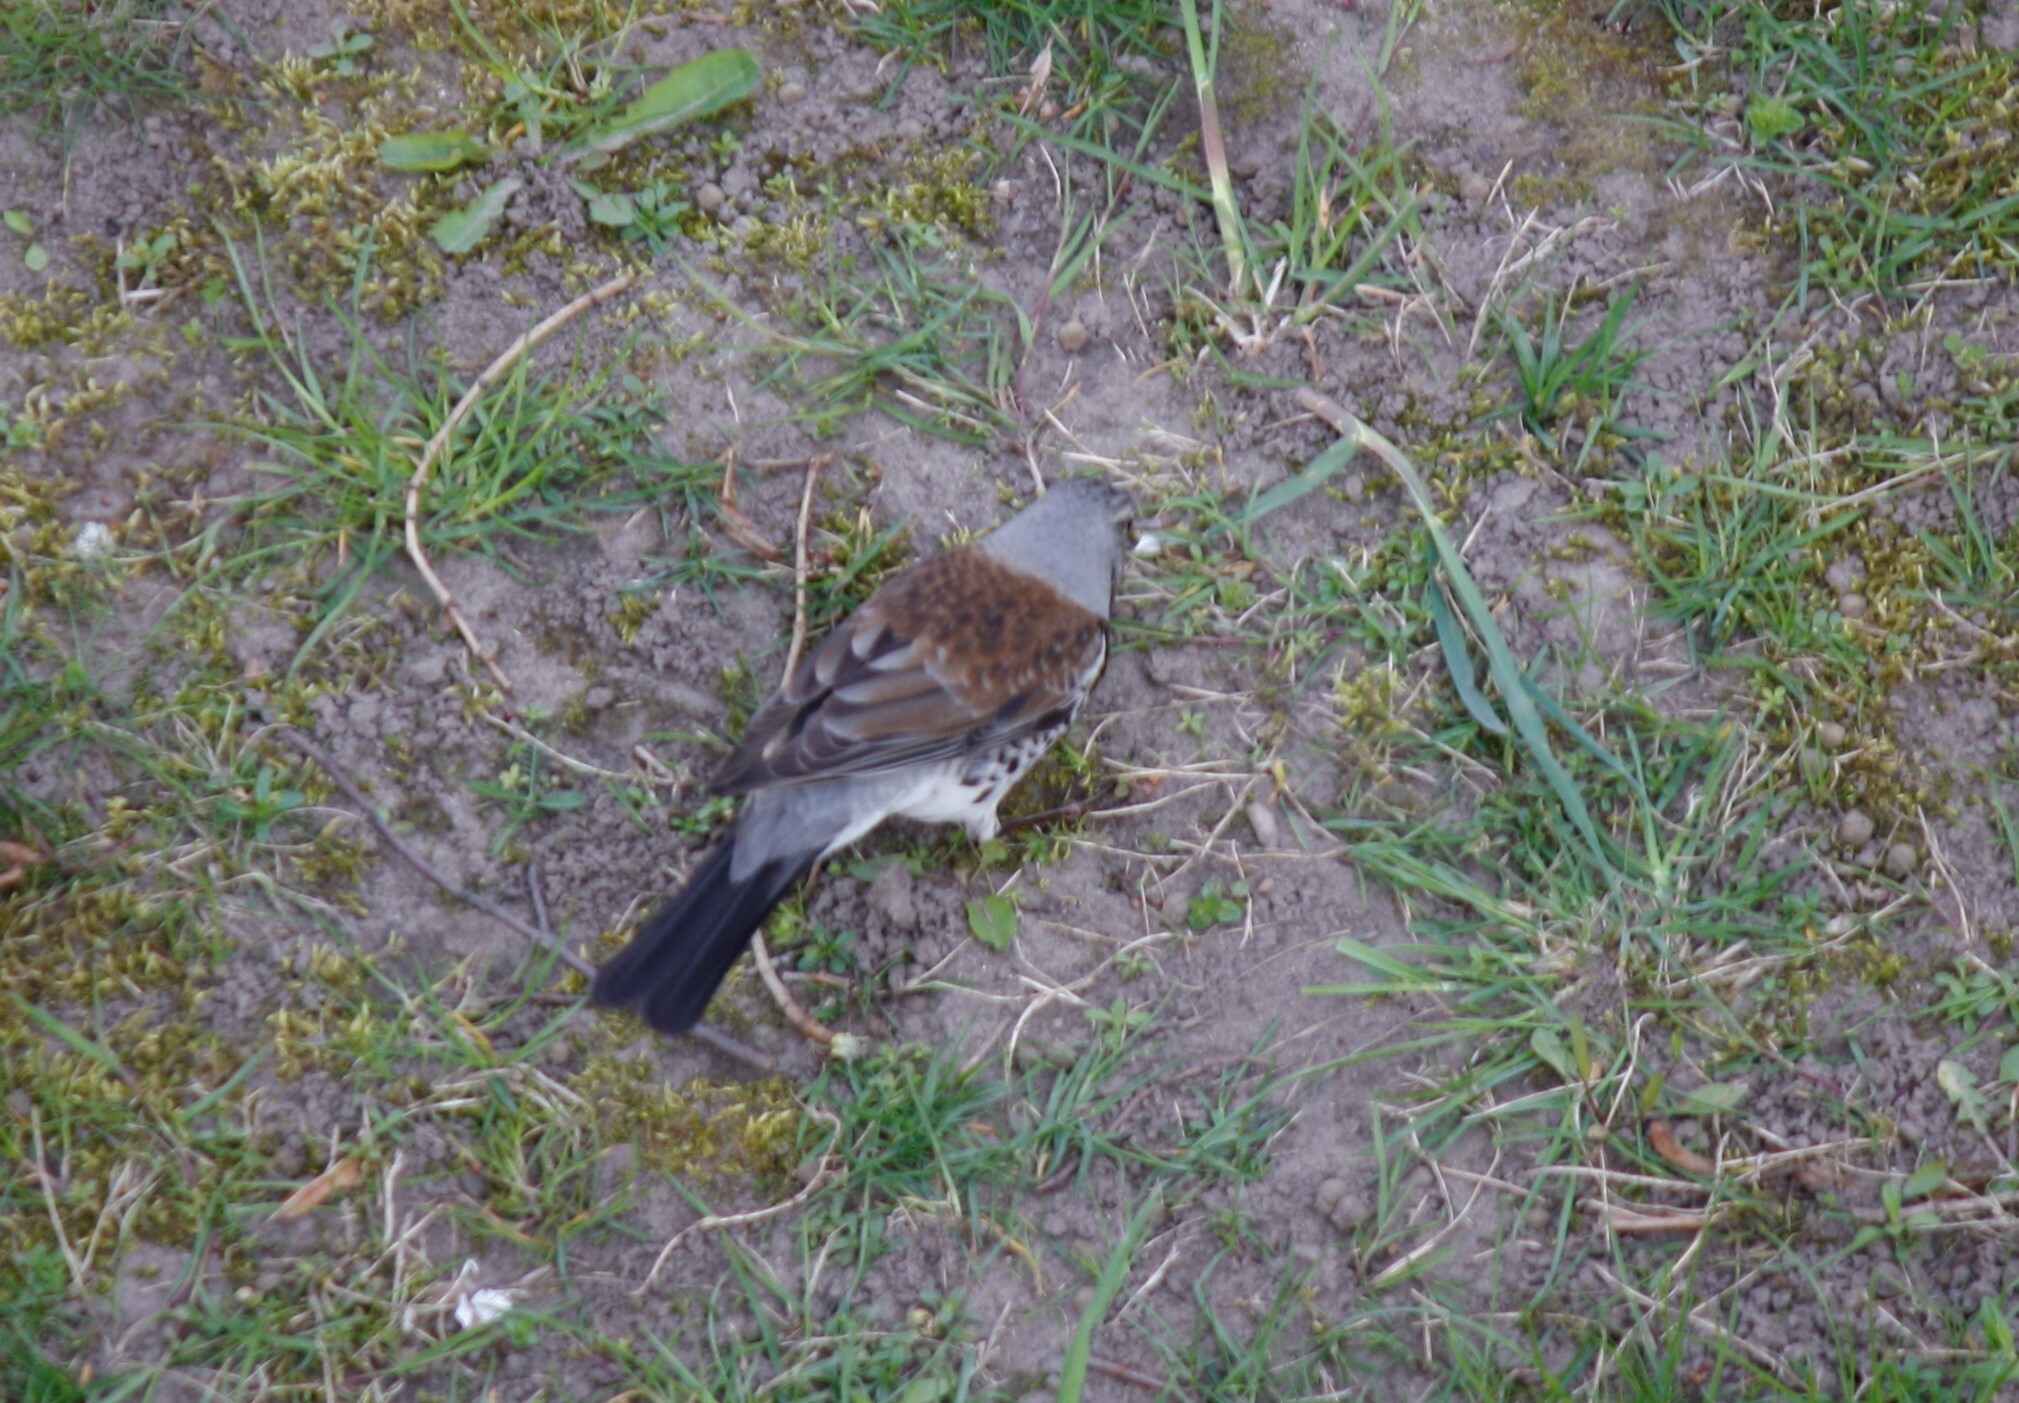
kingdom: Animalia
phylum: Chordata
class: Aves
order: Passeriformes
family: Turdidae
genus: Turdus
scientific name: Turdus pilaris
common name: Fieldfare
